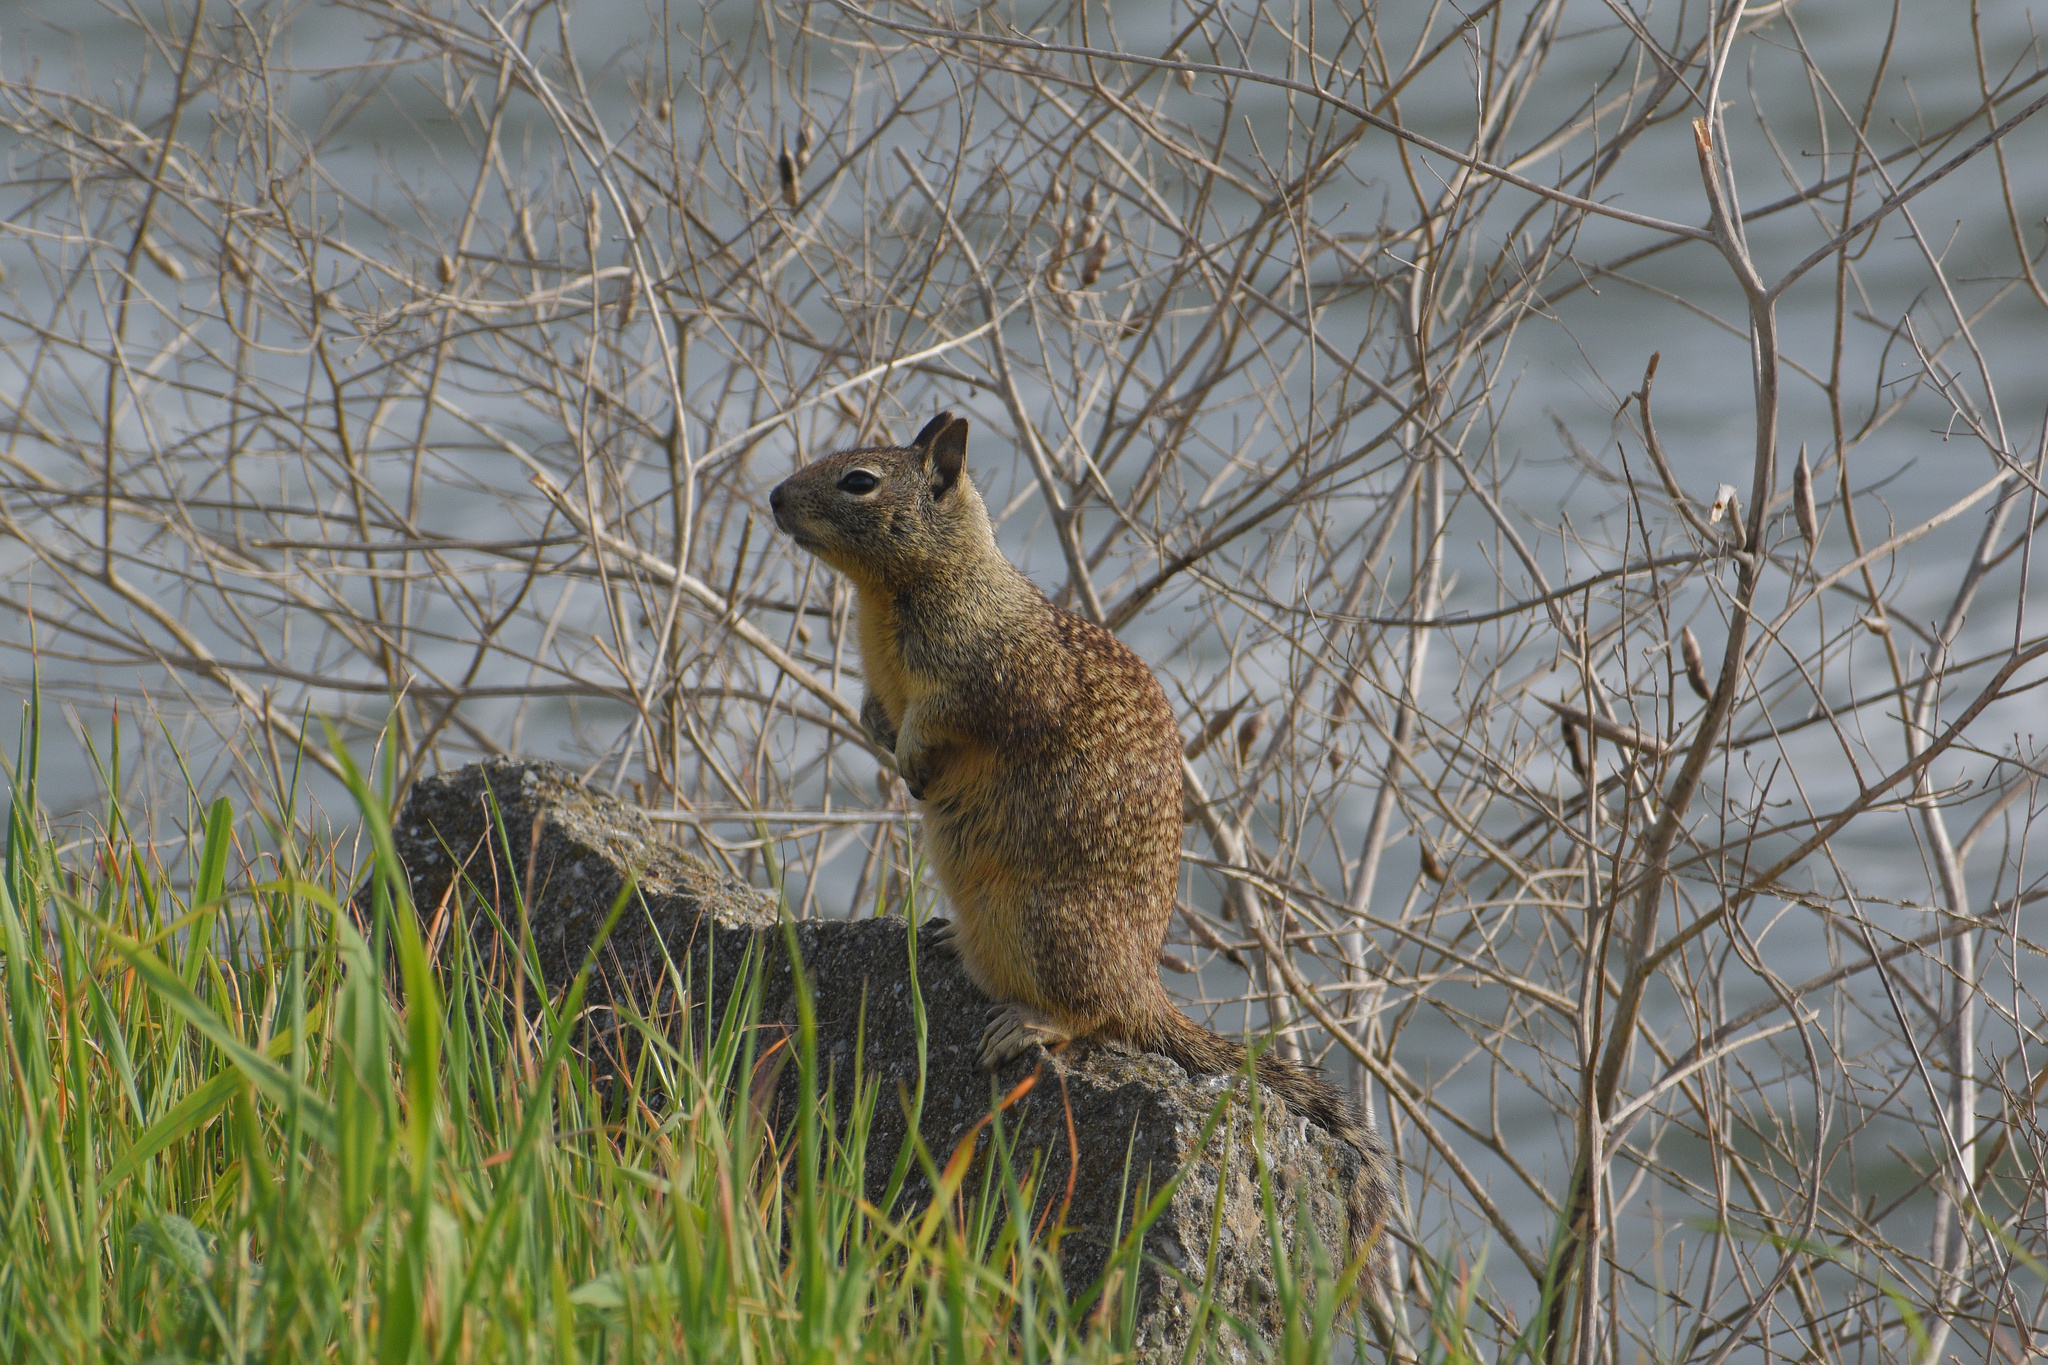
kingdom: Animalia
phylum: Chordata
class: Mammalia
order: Rodentia
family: Sciuridae
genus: Otospermophilus
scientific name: Otospermophilus beecheyi
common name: California ground squirrel
